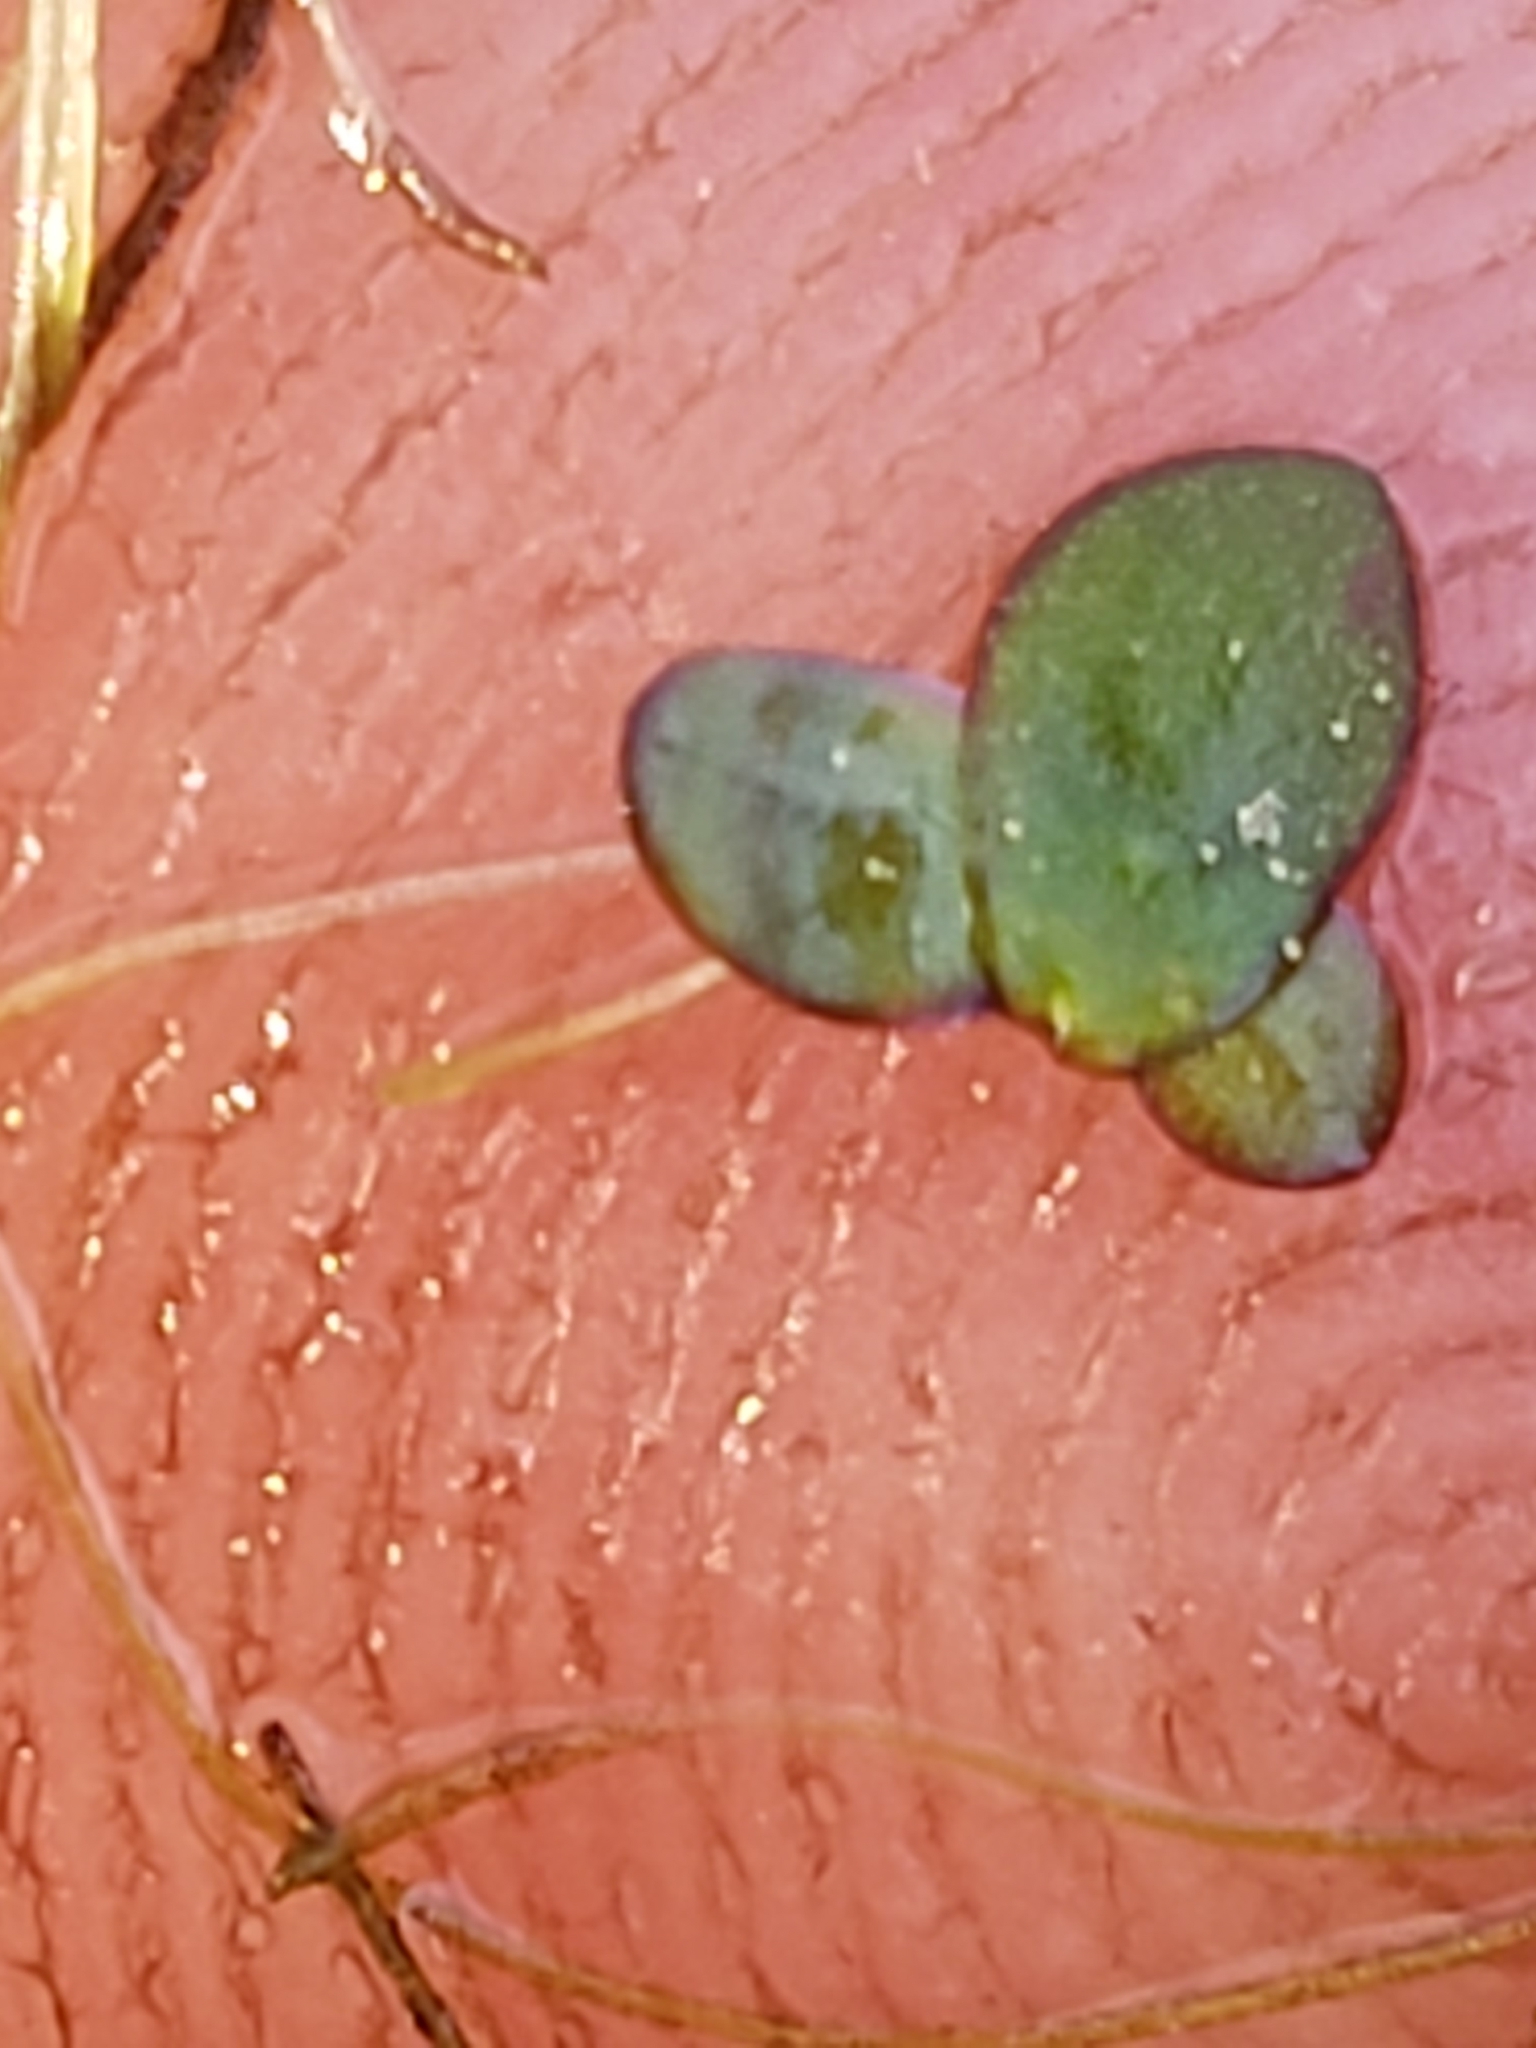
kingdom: Plantae
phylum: Tracheophyta
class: Liliopsida
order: Alismatales
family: Araceae
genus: Spirodela
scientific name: Spirodela polyrhiza
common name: Great duckweed
